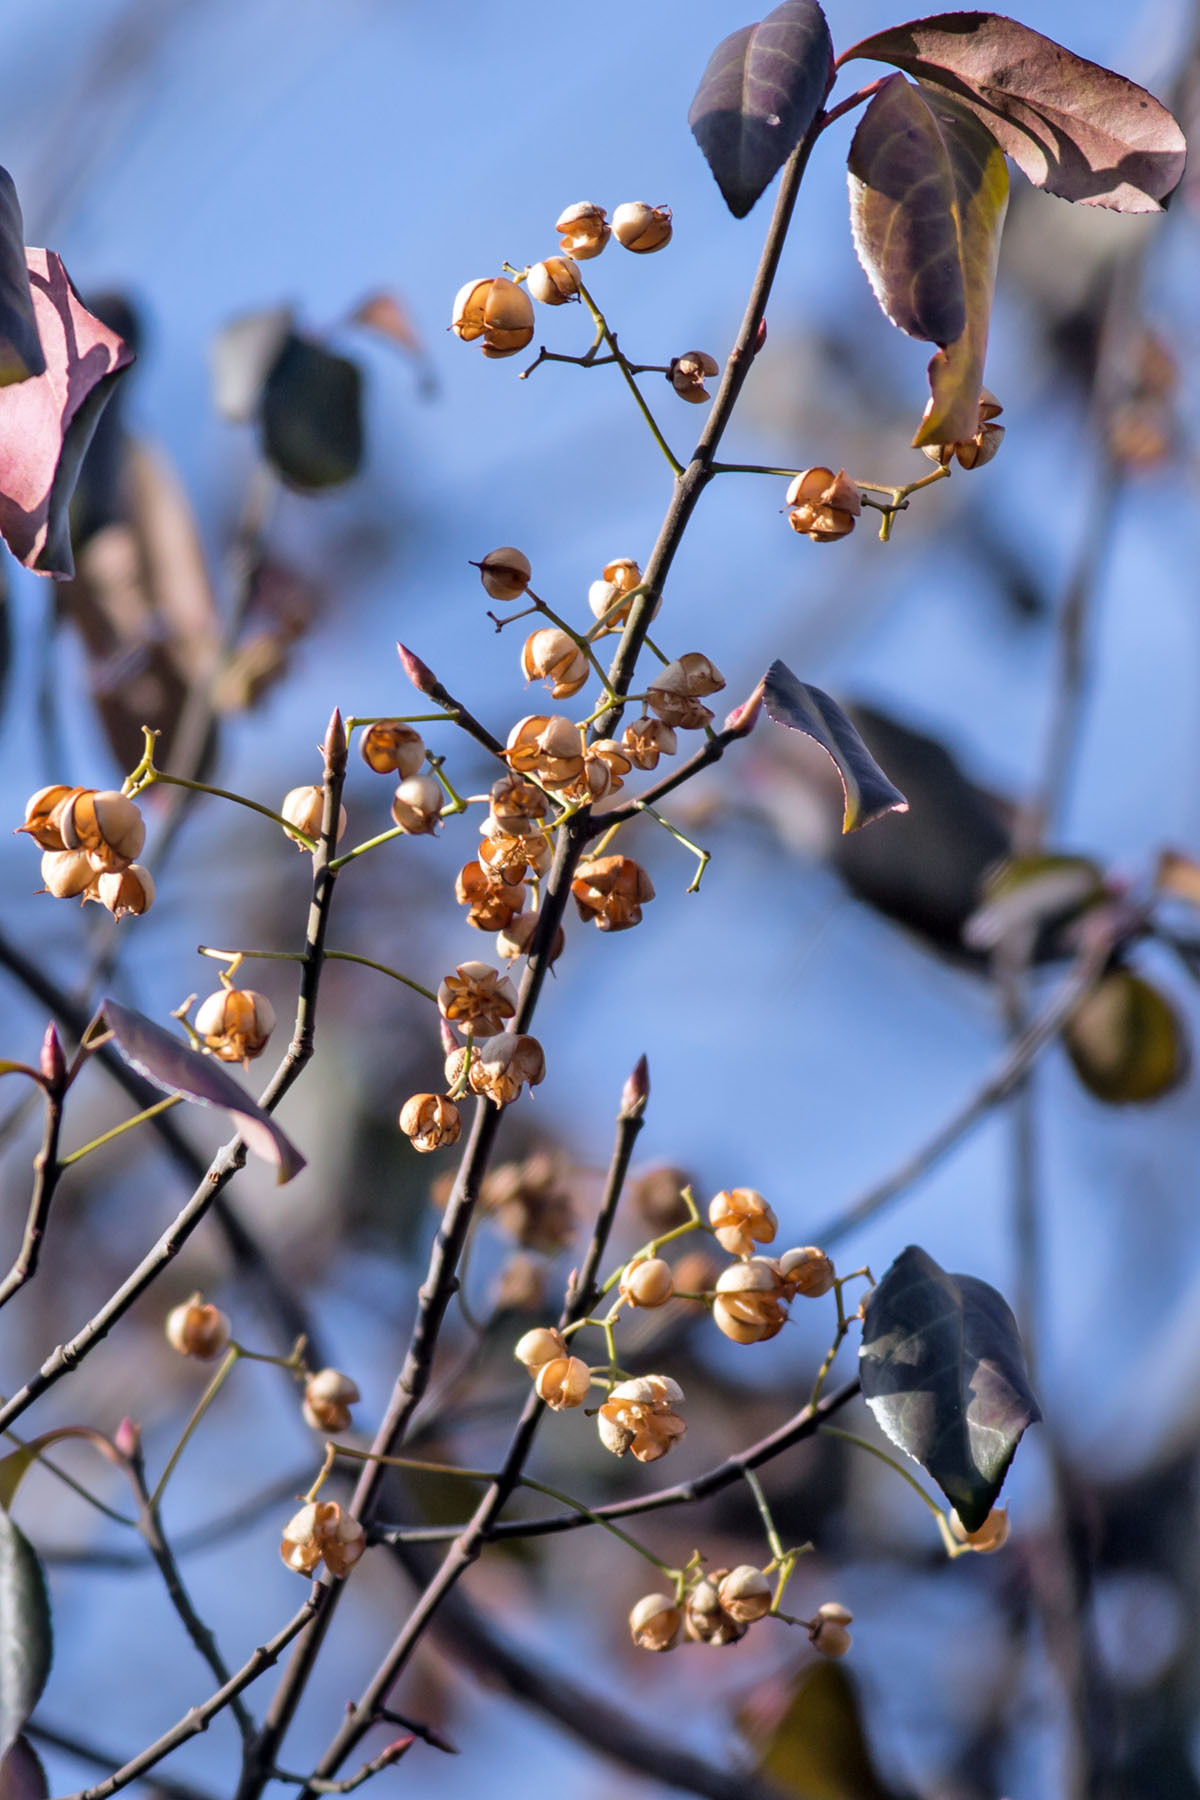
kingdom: Plantae
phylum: Tracheophyta
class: Magnoliopsida
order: Celastrales
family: Celastraceae
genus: Euonymus
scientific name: Euonymus fortunei
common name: Climbing euonymus
